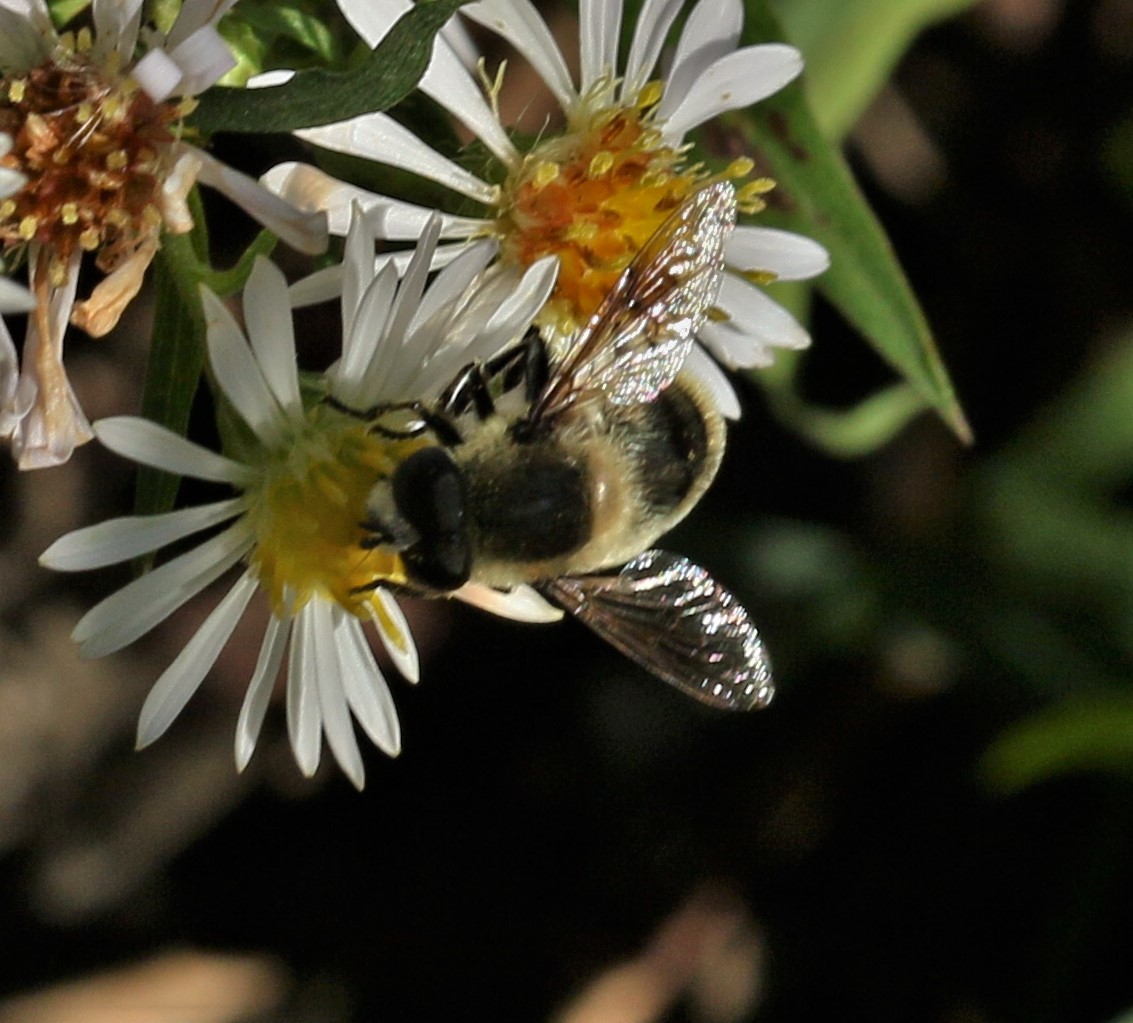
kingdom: Animalia
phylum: Arthropoda
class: Insecta
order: Diptera
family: Syrphidae
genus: Eristalis
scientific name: Eristalis anthophorina
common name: Orange-spotted drone fly
